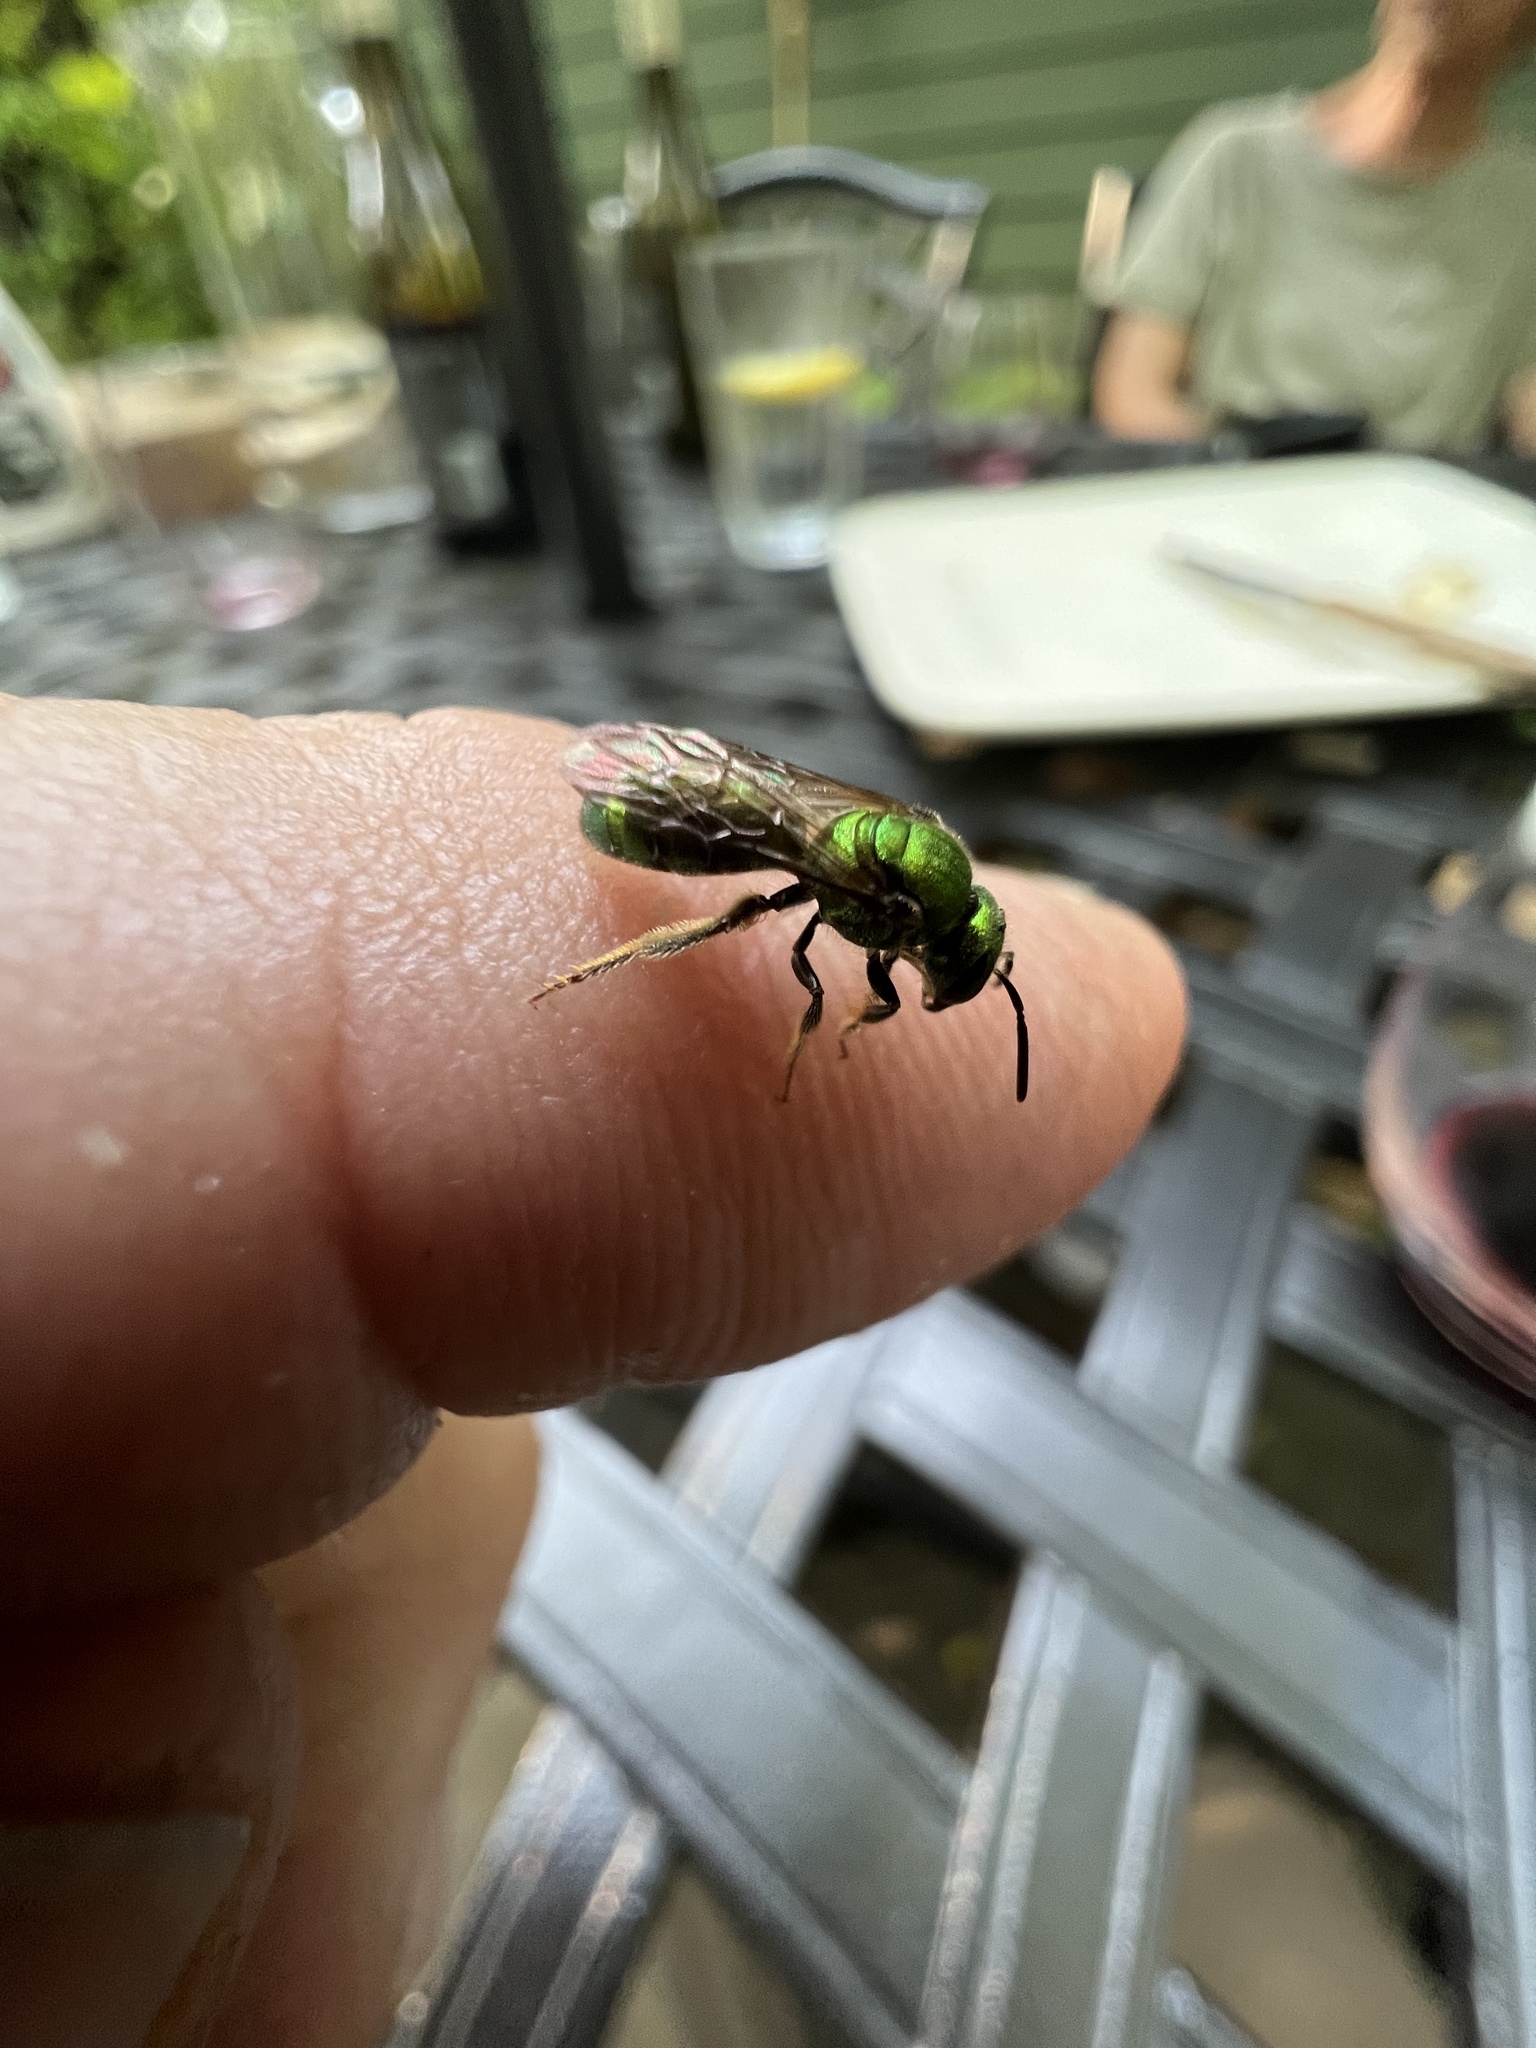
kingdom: Animalia
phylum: Arthropoda
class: Insecta
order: Hymenoptera
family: Halictidae
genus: Augochlora
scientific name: Augochlora pura
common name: Pure green sweat bee
